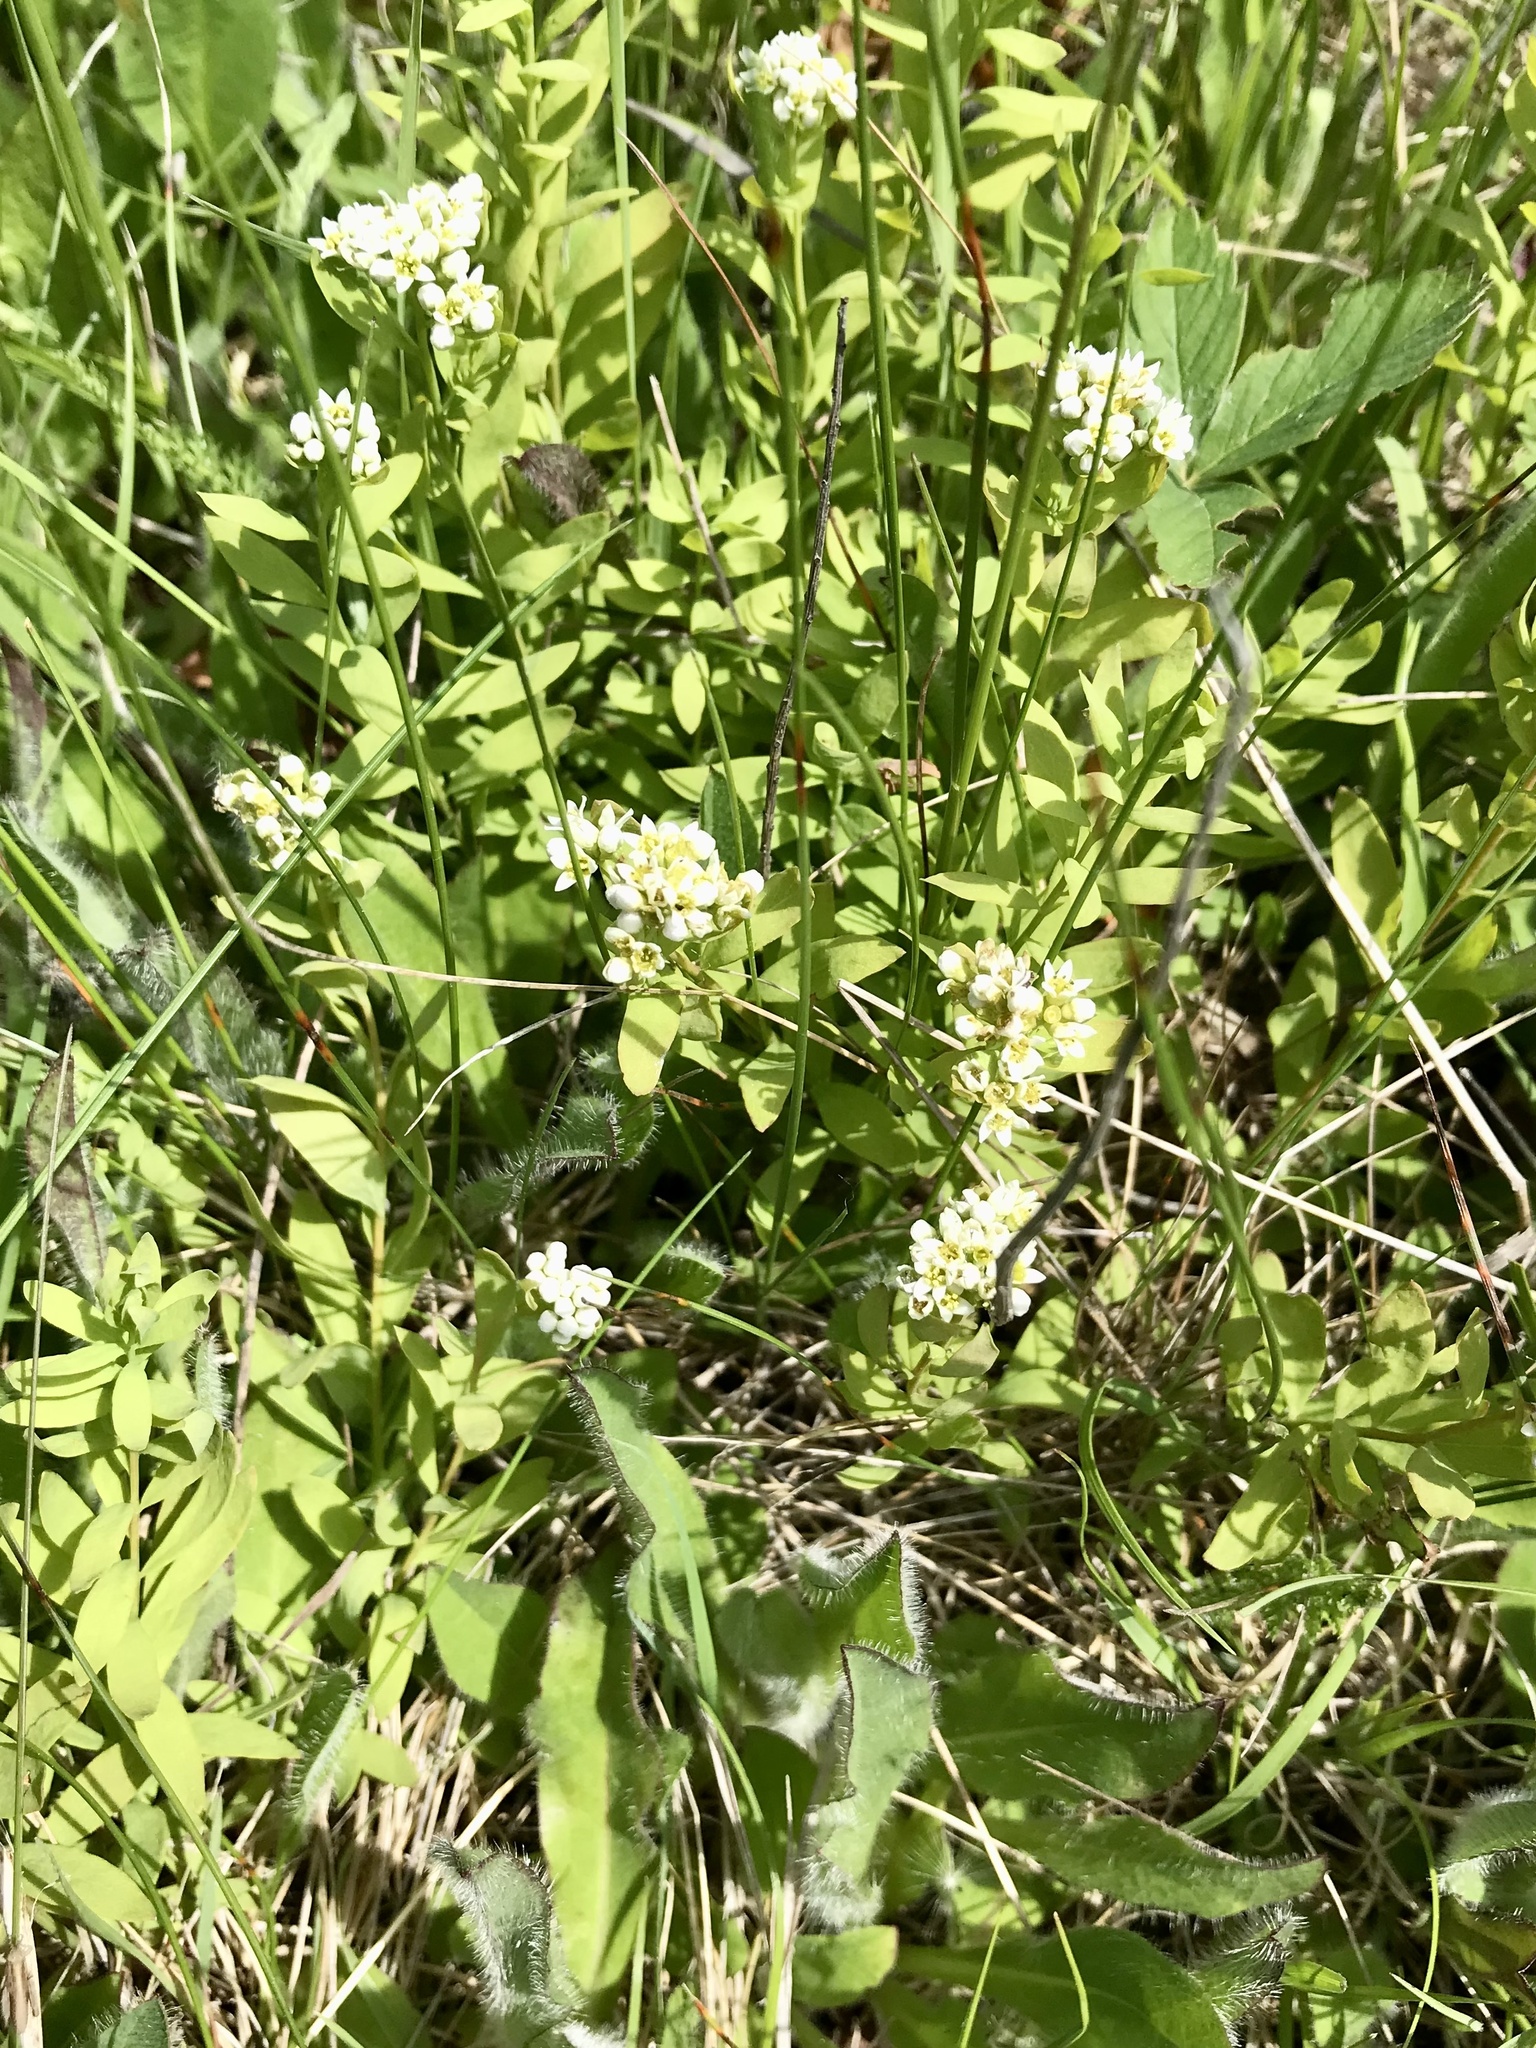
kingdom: Plantae
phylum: Tracheophyta
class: Magnoliopsida
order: Santalales
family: Comandraceae
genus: Comandra
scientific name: Comandra umbellata
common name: Bastard toadflax
